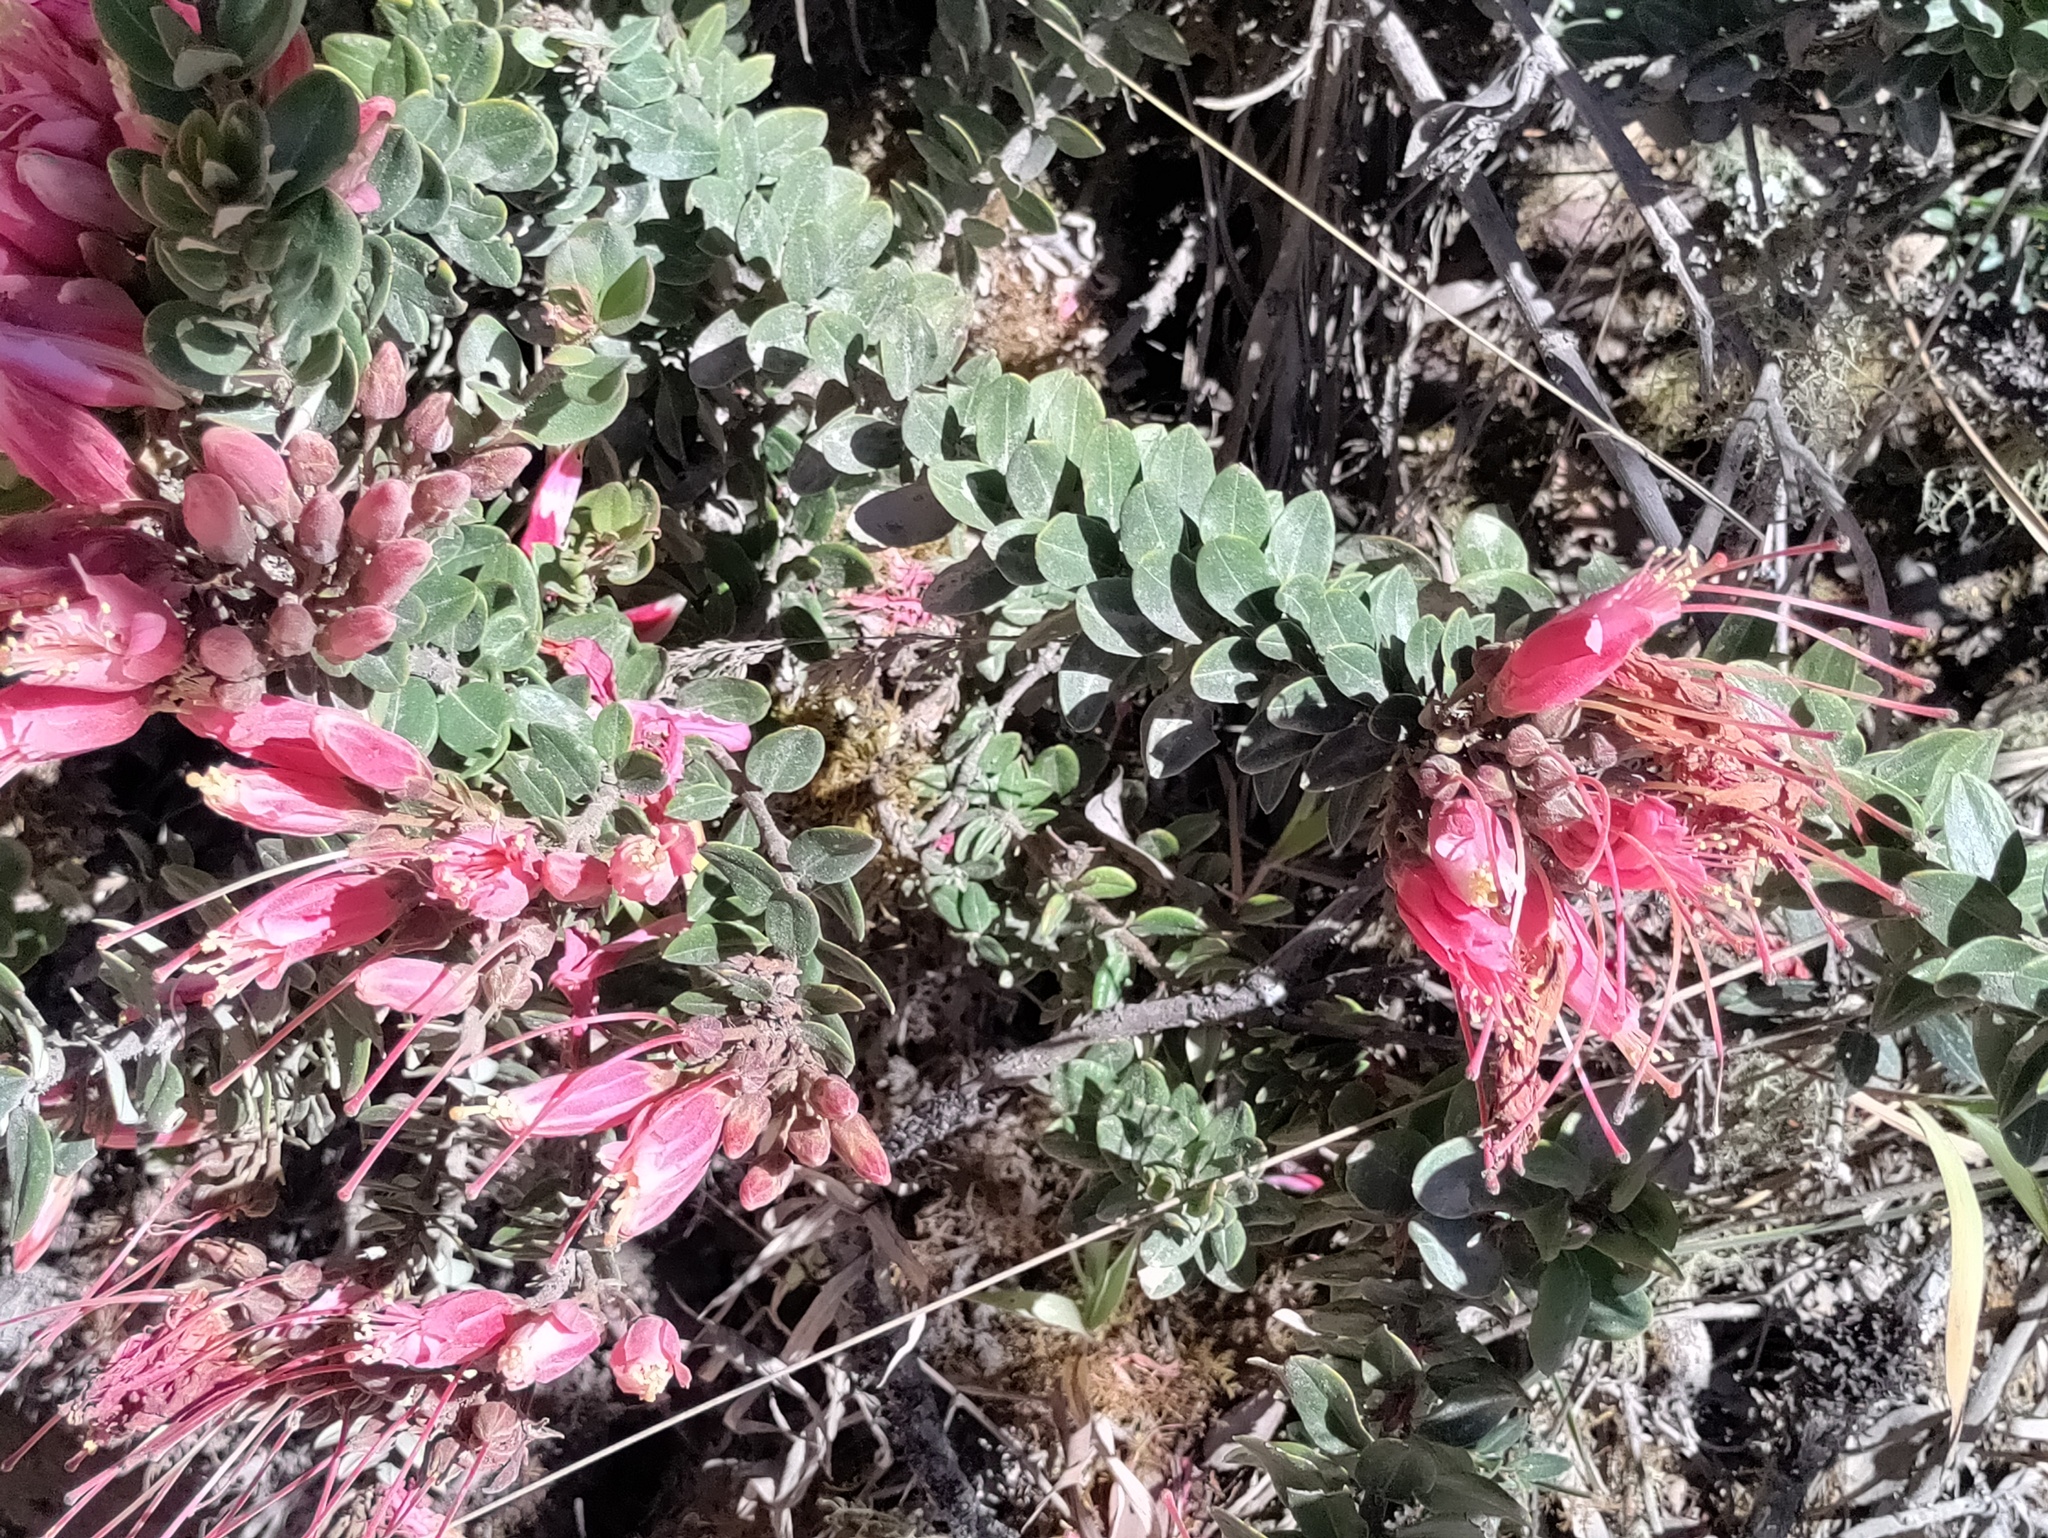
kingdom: Plantae
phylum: Tracheophyta
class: Magnoliopsida
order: Ericales
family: Ericaceae
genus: Bejaria
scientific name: Bejaria resinosa
